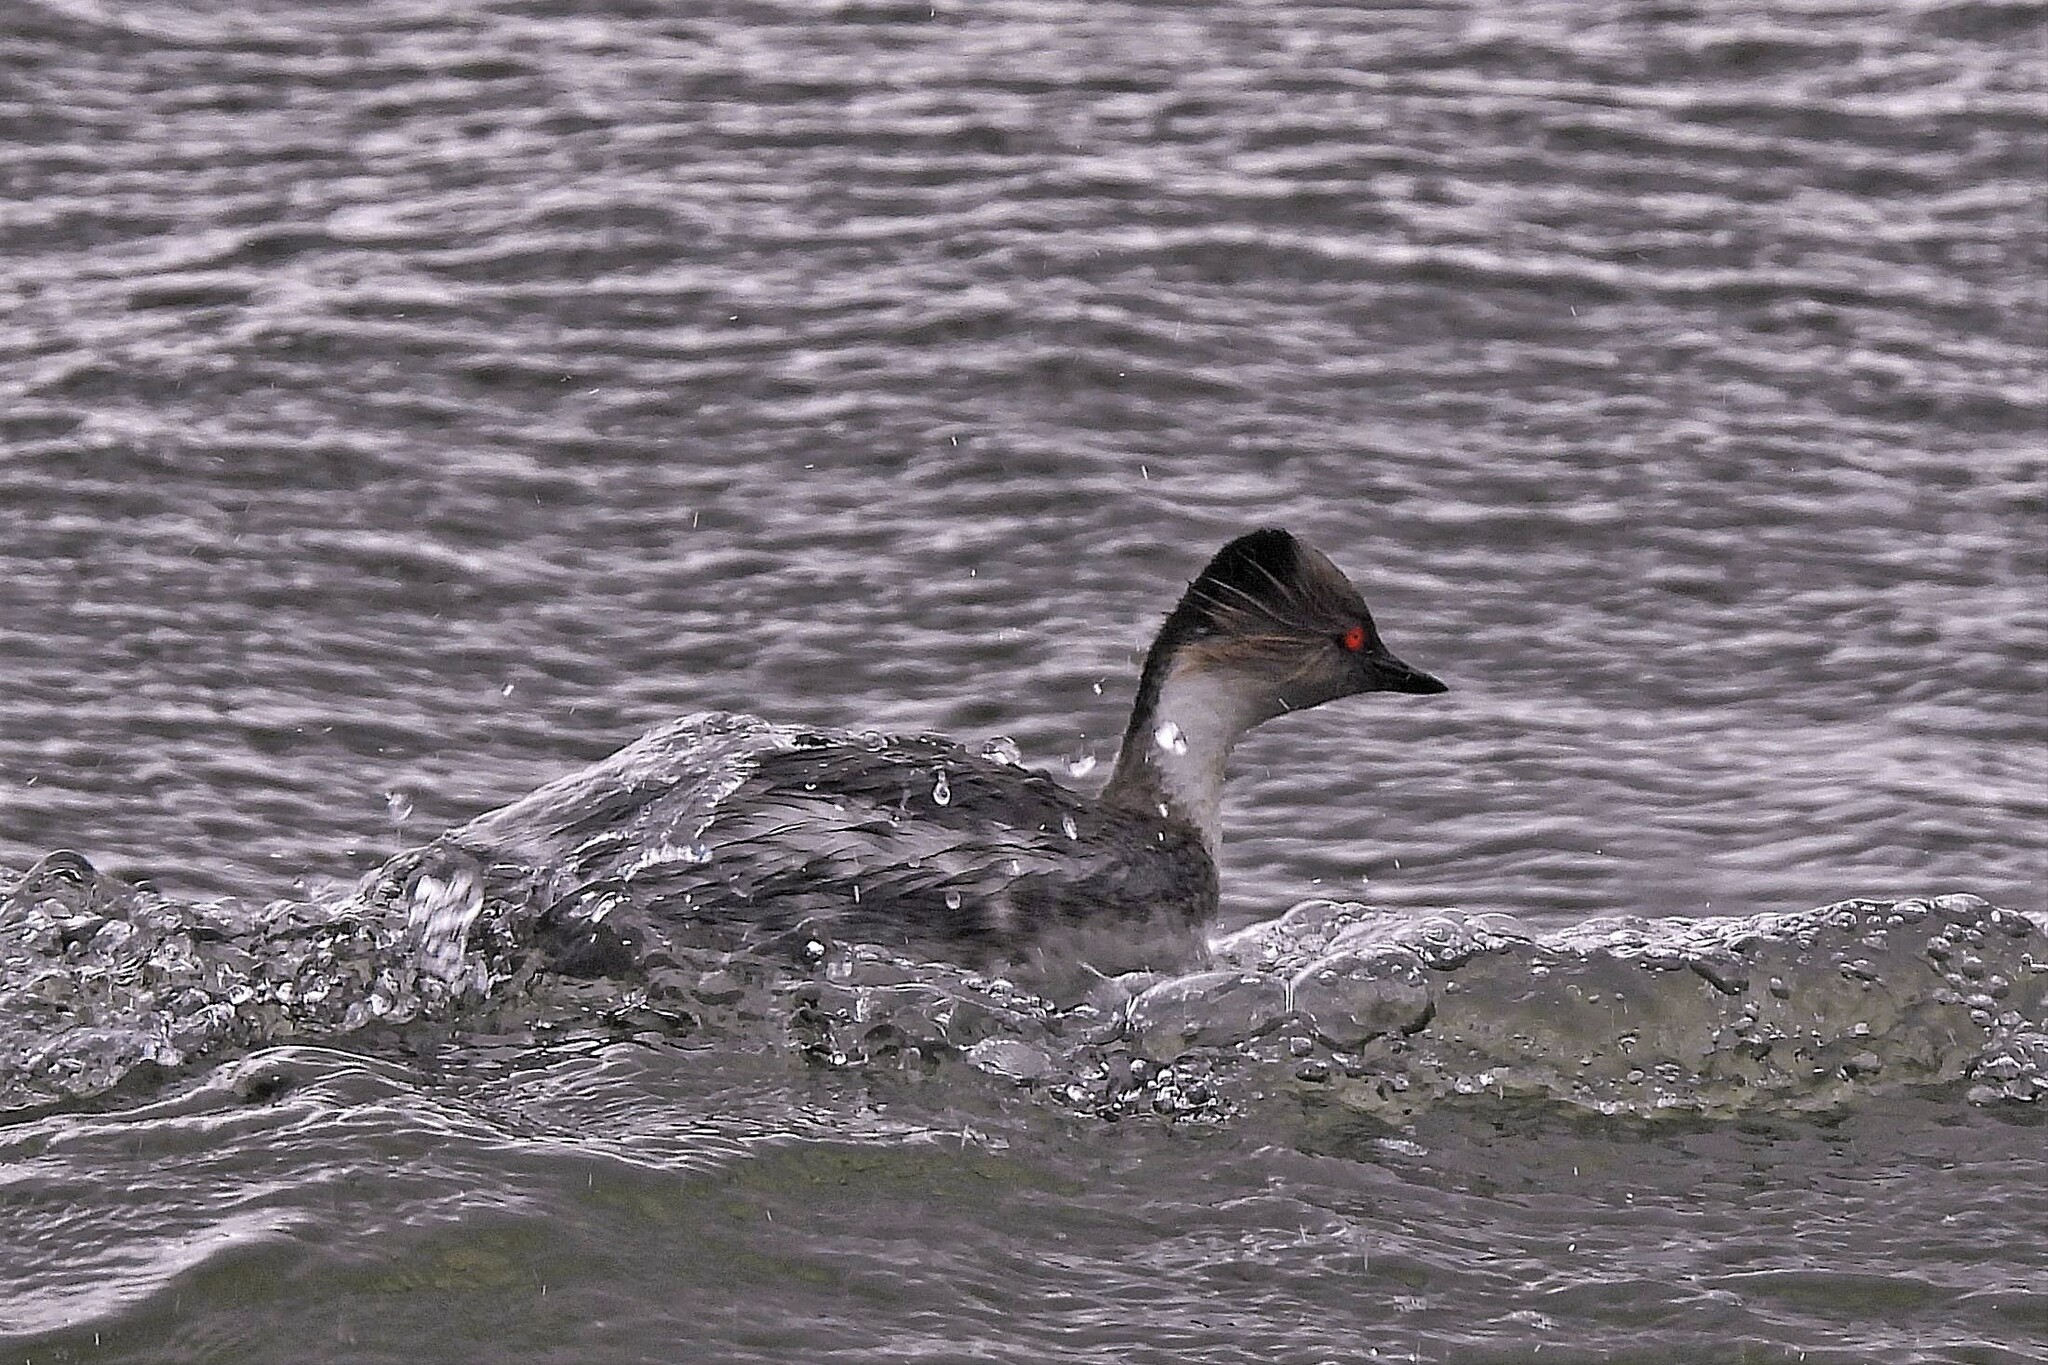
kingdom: Animalia
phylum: Chordata
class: Aves
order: Podicipediformes
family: Podicipedidae
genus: Podiceps
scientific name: Podiceps occipitalis
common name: Silvery grebe
